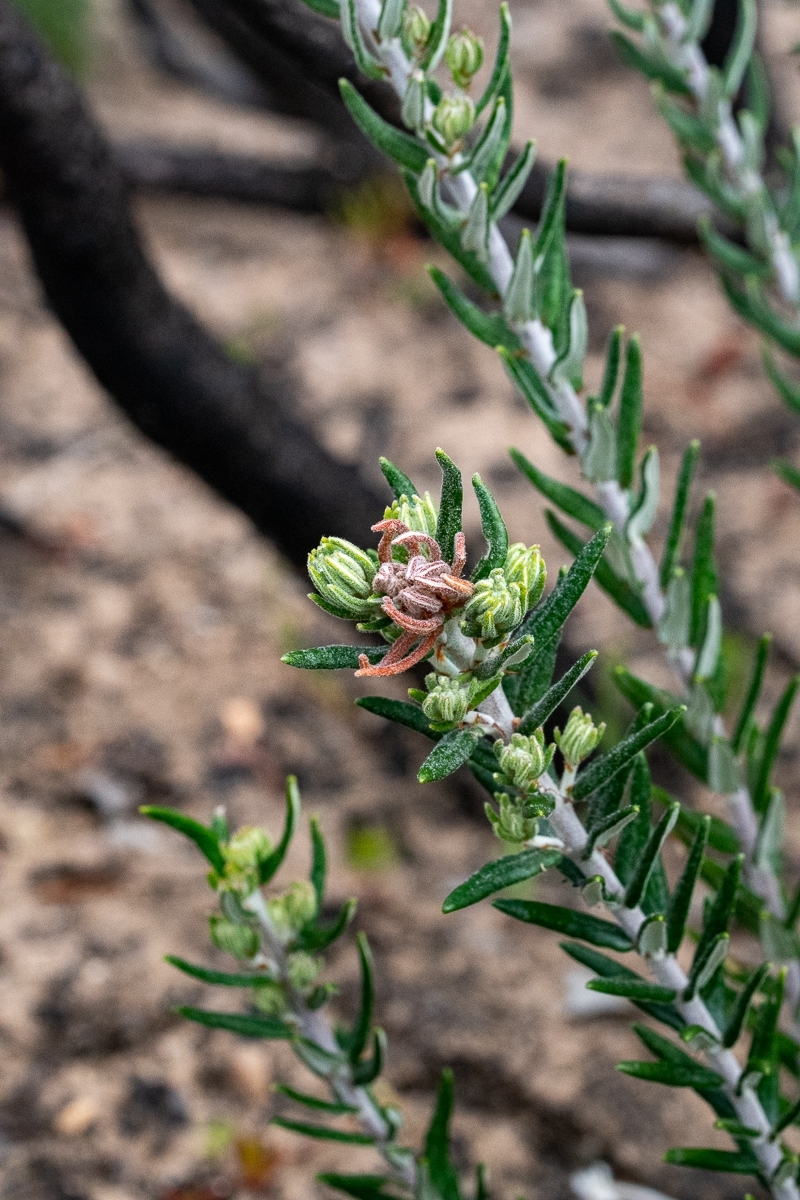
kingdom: Plantae
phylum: Tracheophyta
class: Magnoliopsida
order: Rosales
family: Rhamnaceae
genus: Trichocephalus
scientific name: Trichocephalus stipularis
